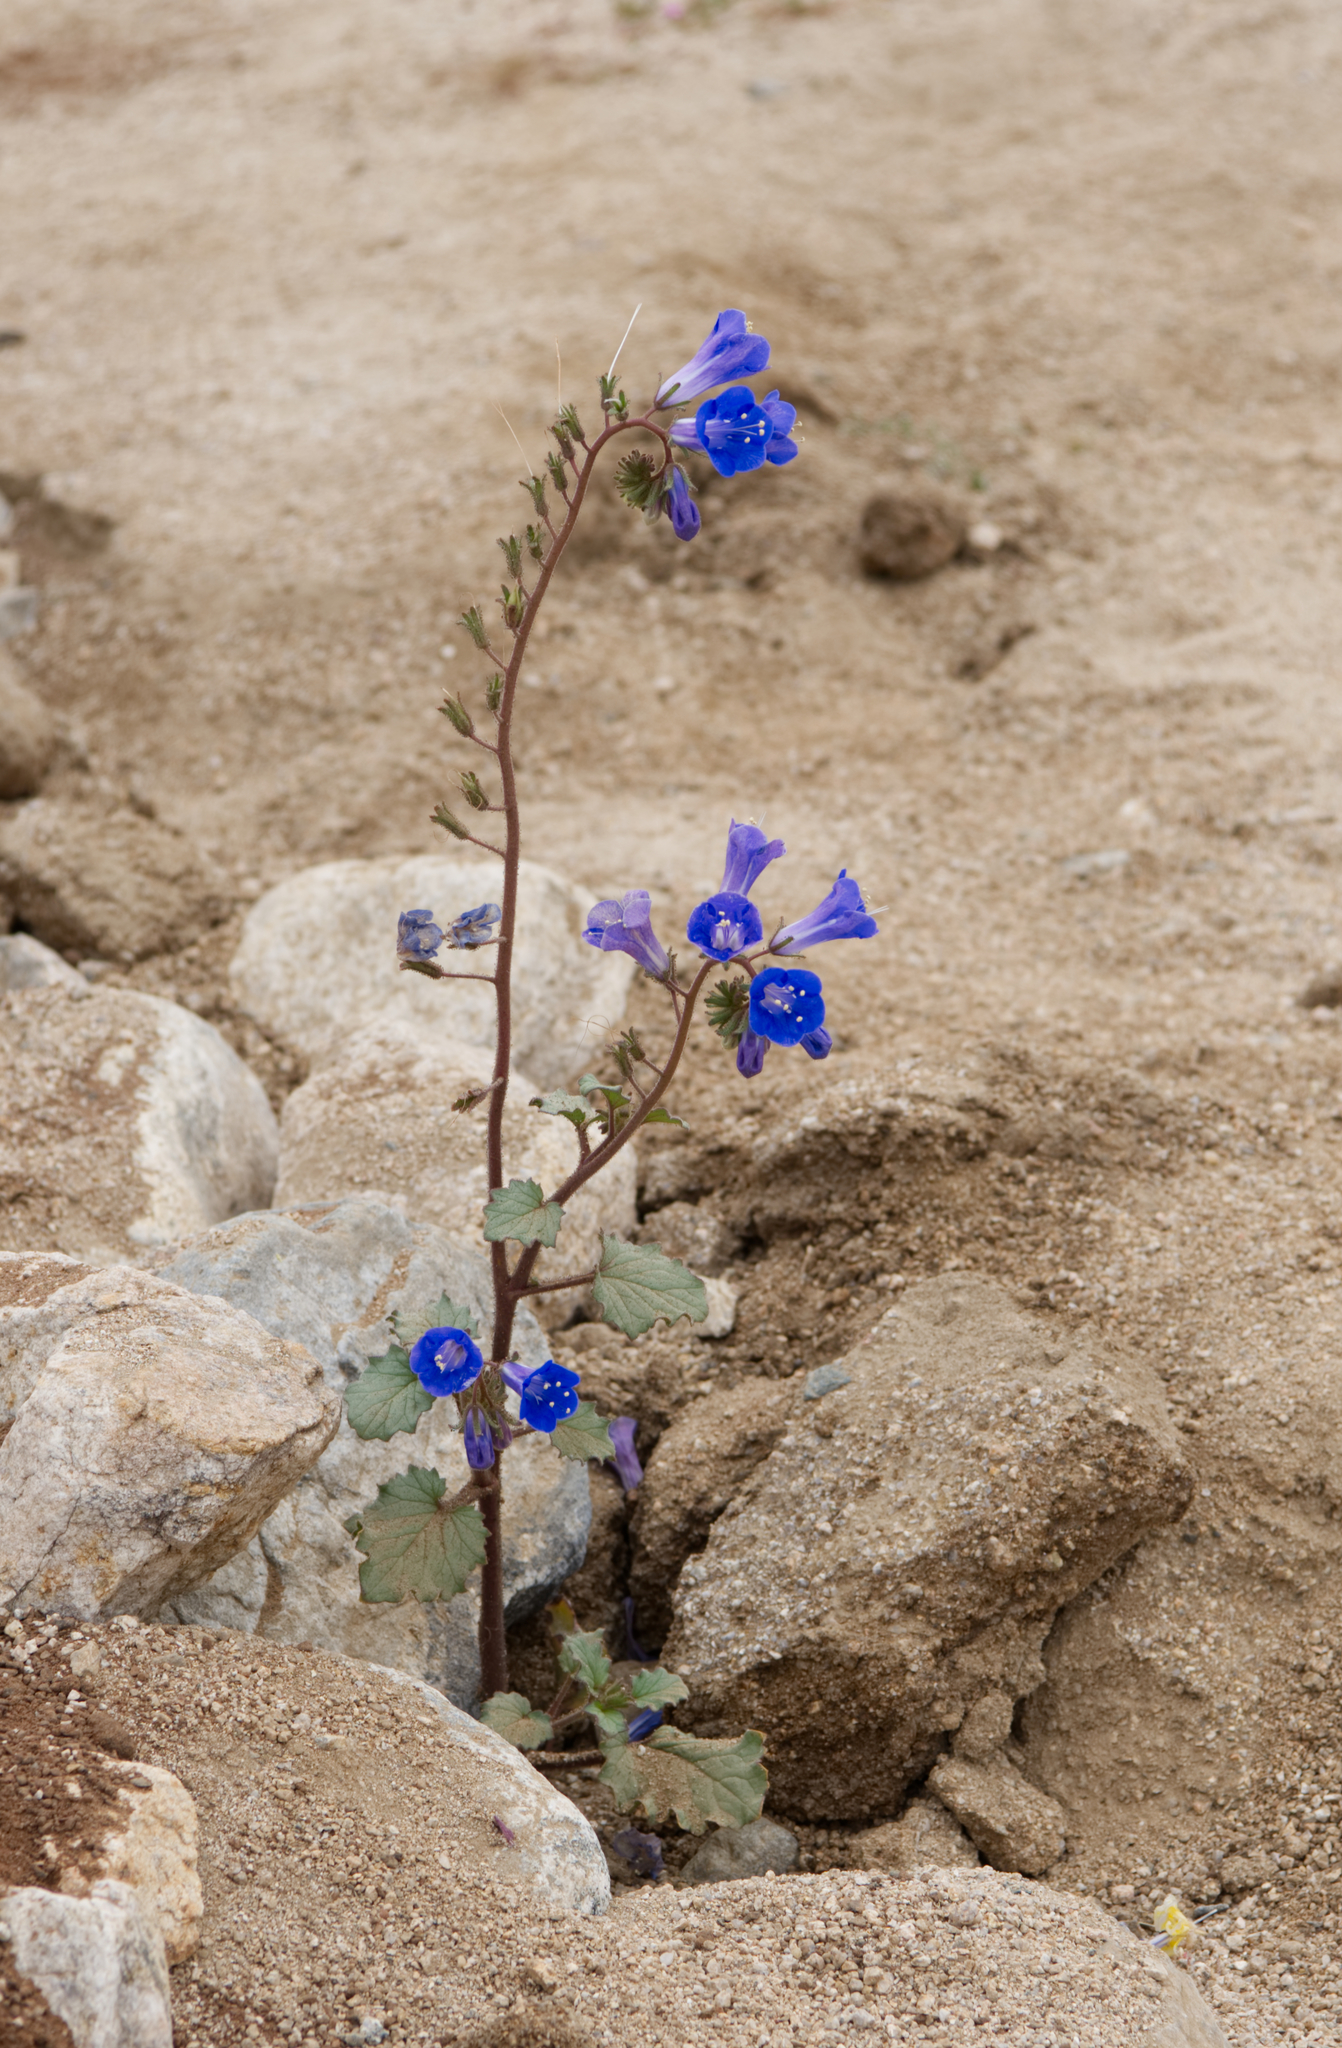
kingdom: Plantae
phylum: Tracheophyta
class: Magnoliopsida
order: Boraginales
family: Hydrophyllaceae
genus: Phacelia
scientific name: Phacelia campanularia
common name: California bluebell
